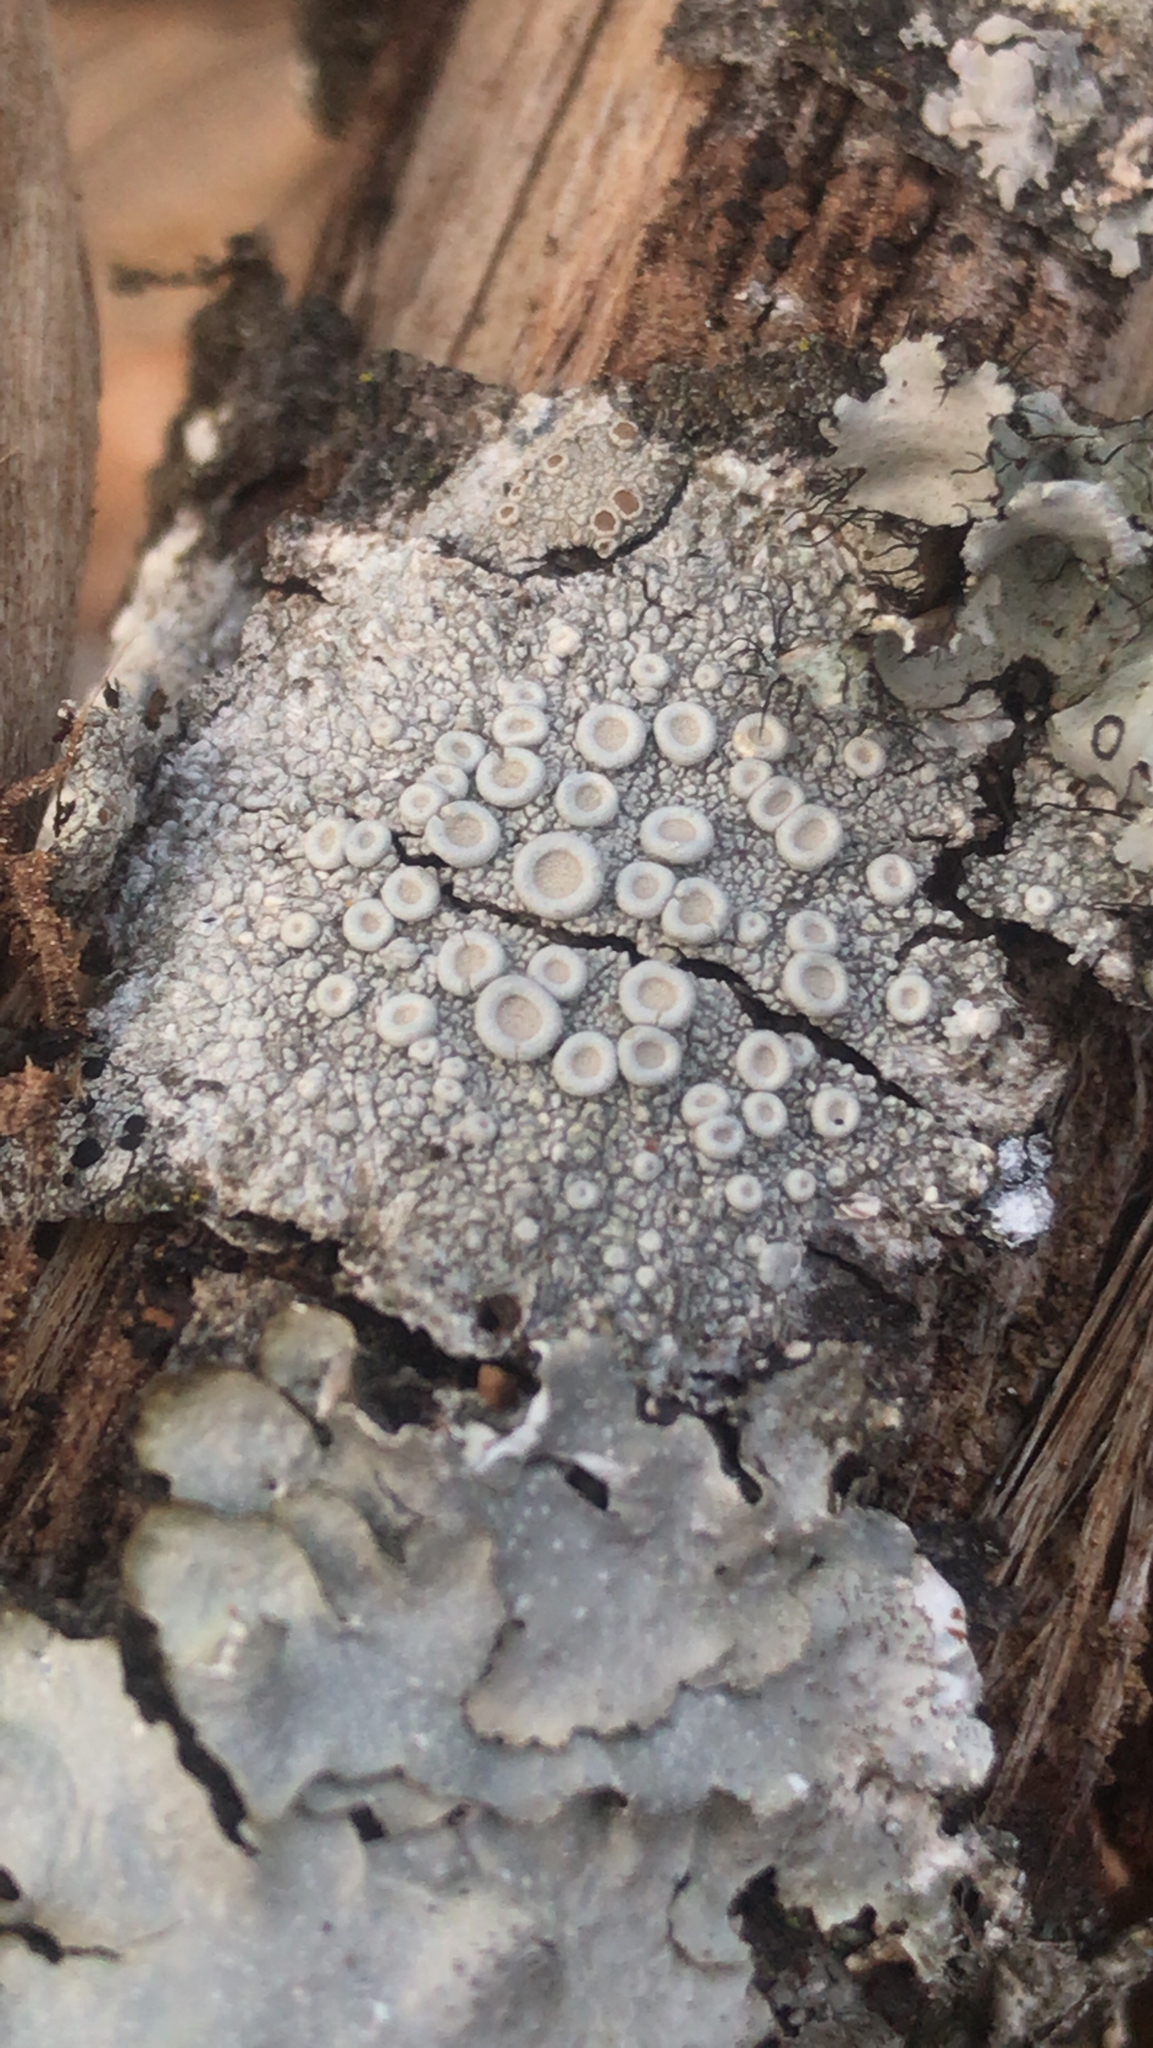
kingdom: Fungi
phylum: Ascomycota
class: Lecanoromycetes
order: Pertusariales
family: Ochrolechiaceae
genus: Ochrolechia
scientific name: Ochrolechia africana
